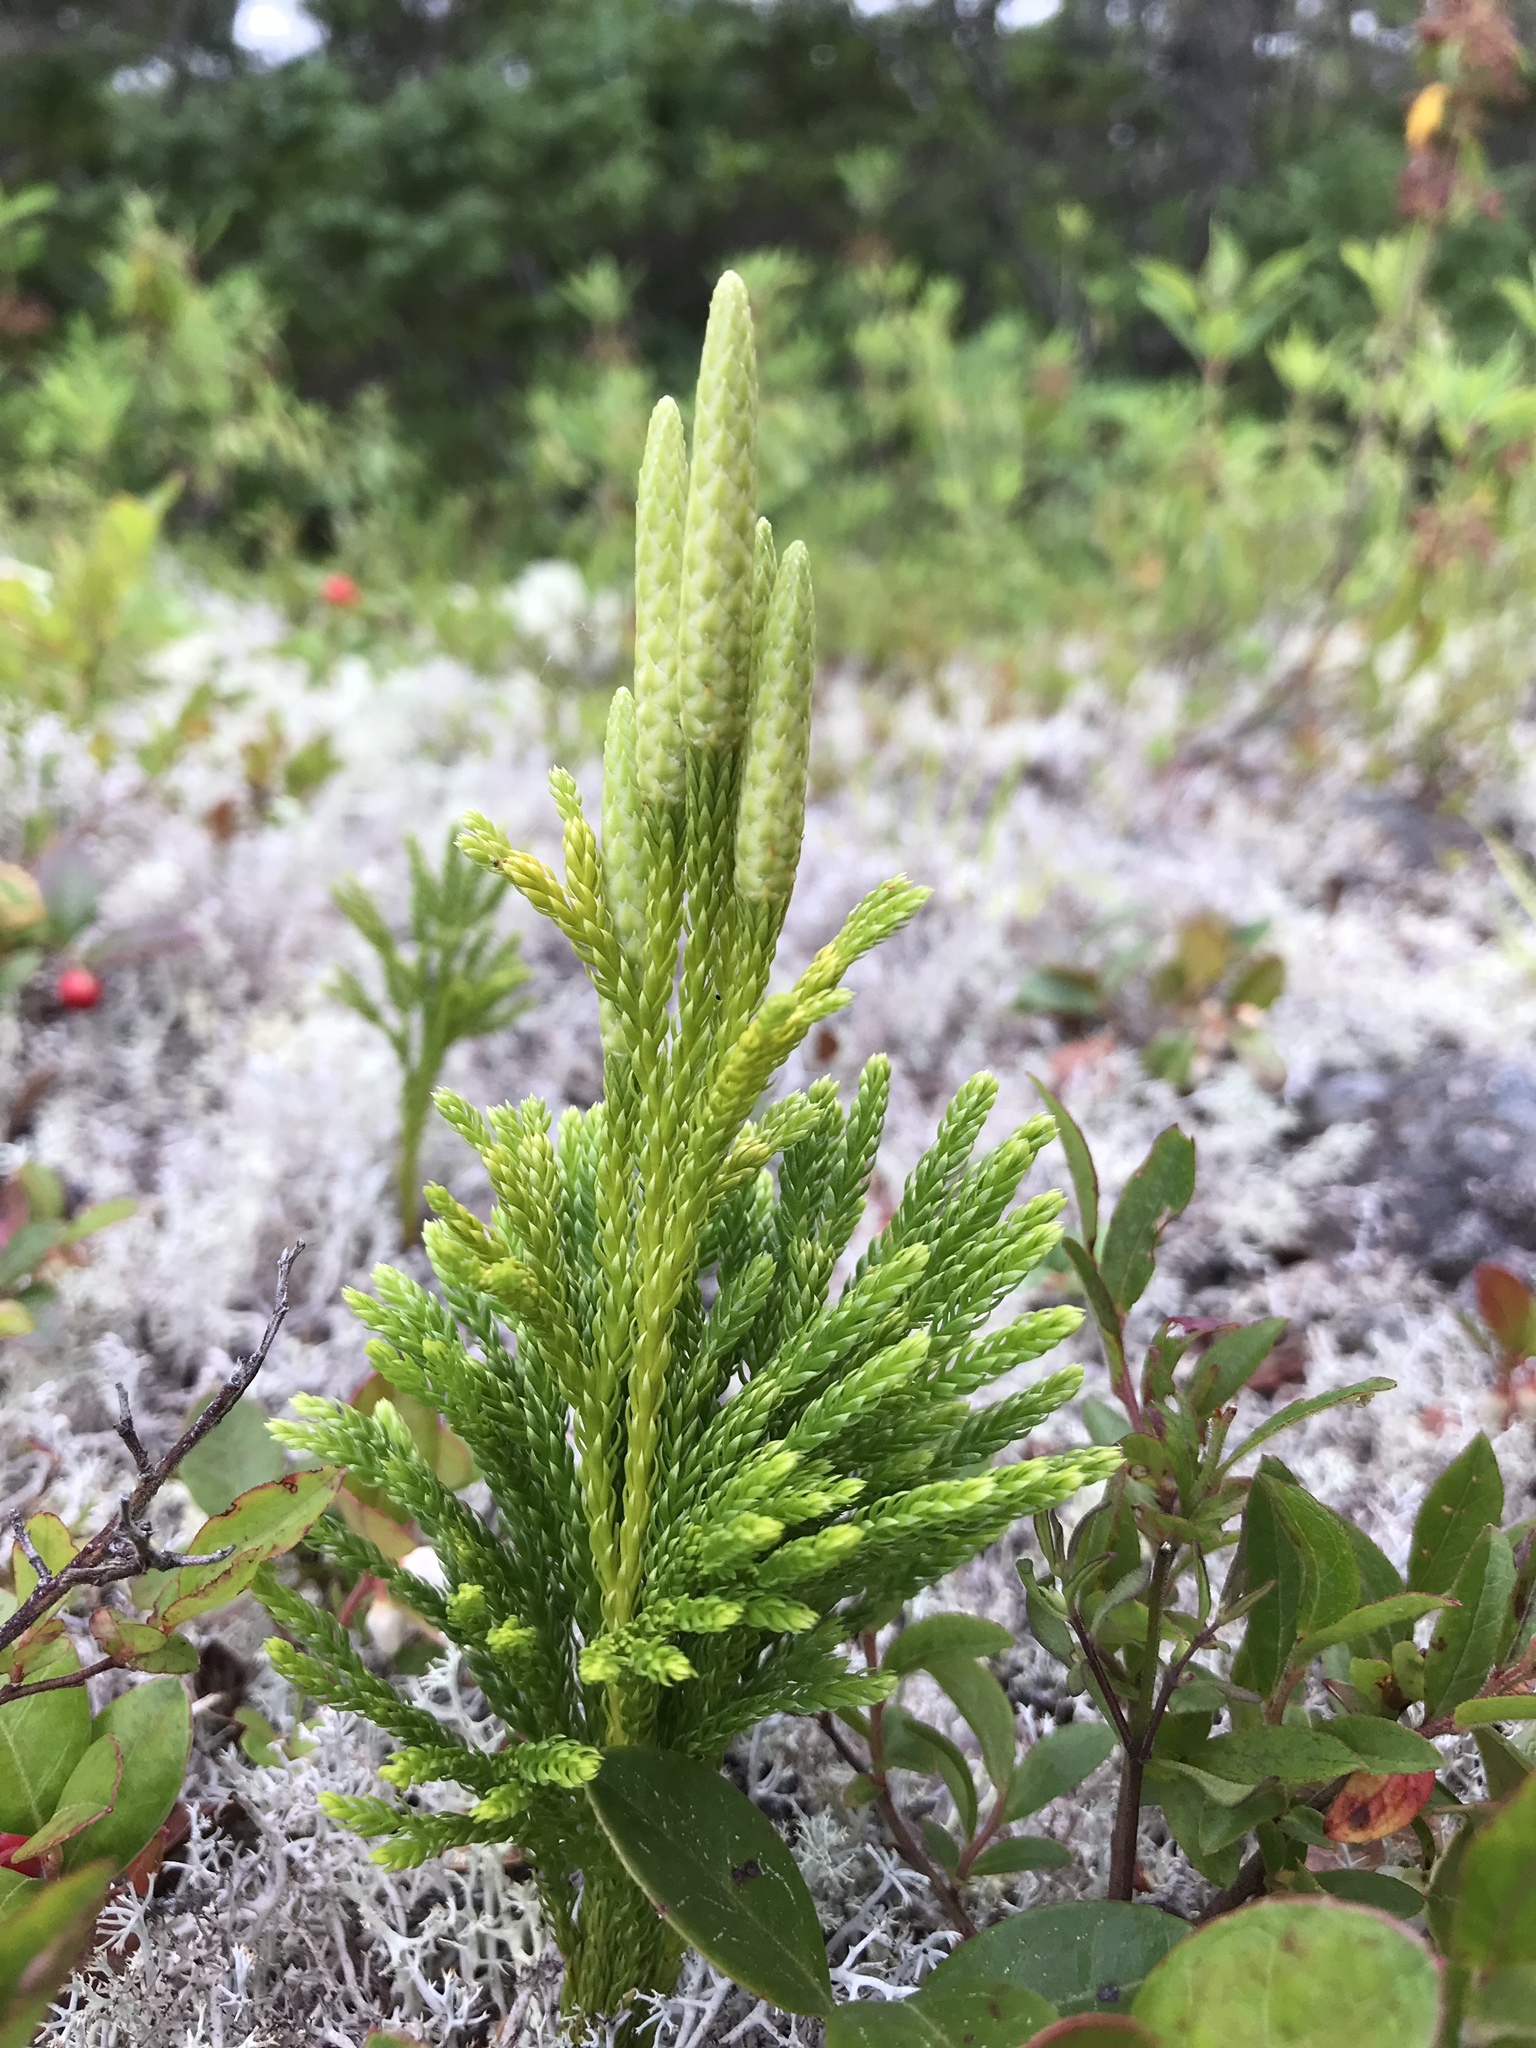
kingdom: Plantae
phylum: Tracheophyta
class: Lycopodiopsida
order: Lycopodiales
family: Lycopodiaceae
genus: Dendrolycopodium
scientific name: Dendrolycopodium hickeyi
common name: Hickey's clubmoss
